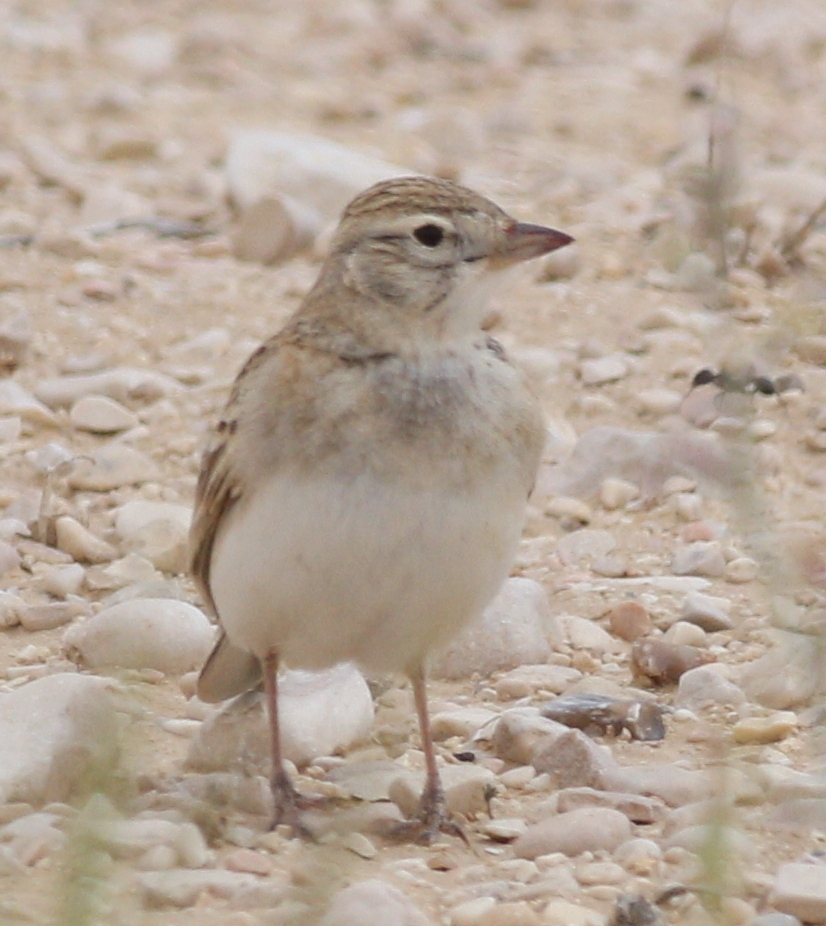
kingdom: Animalia
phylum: Chordata
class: Aves
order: Passeriformes
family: Alaudidae
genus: Calandrella
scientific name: Calandrella brachydactyla
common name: Greater short-toed lark
